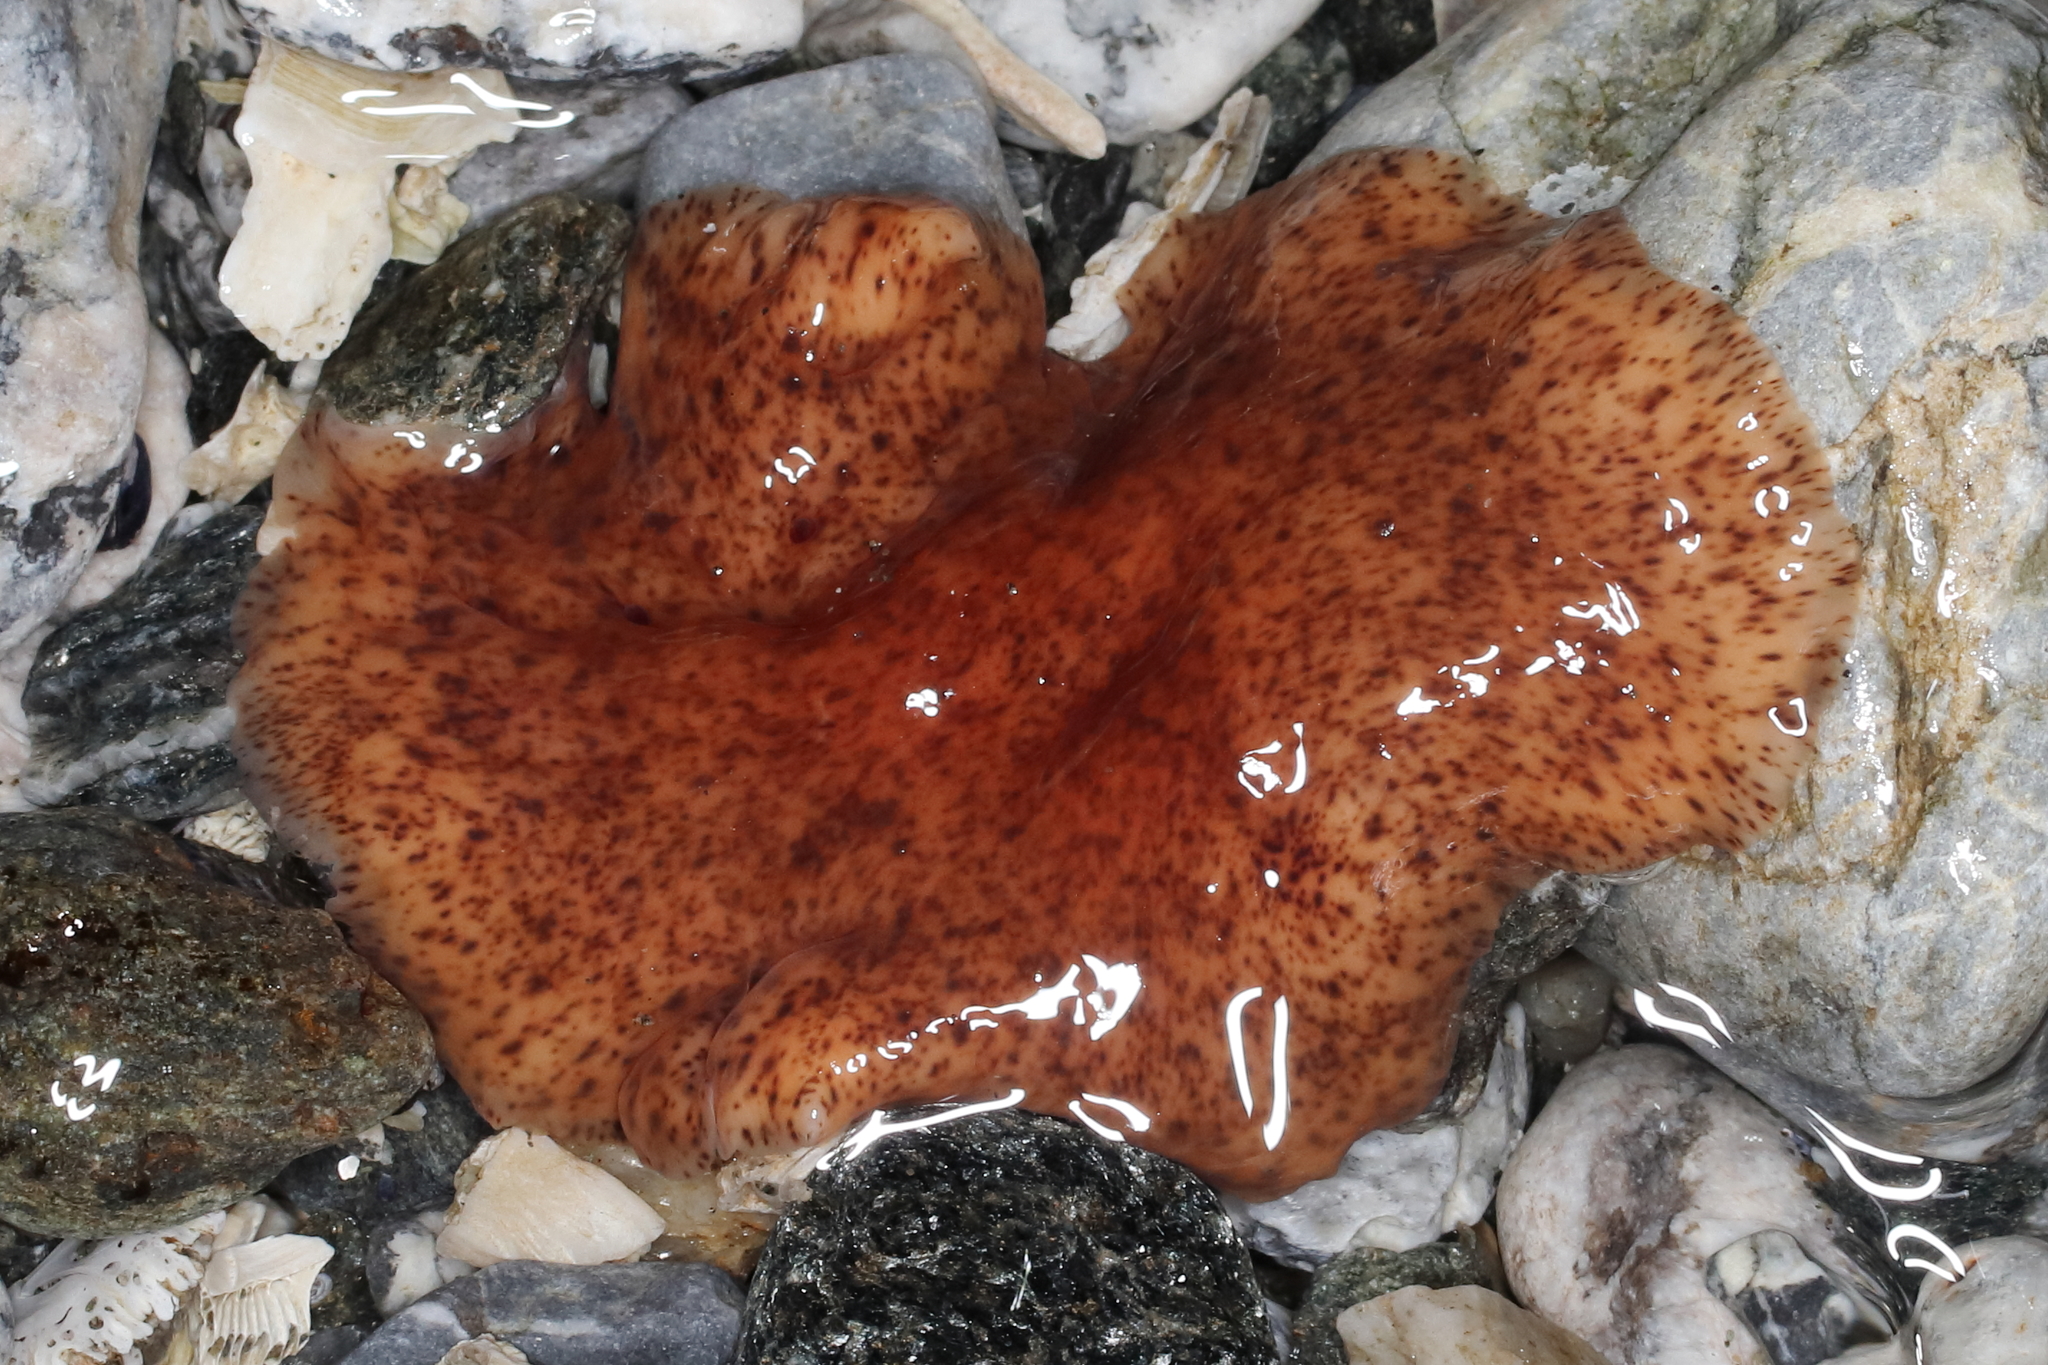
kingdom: Animalia
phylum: Platyhelminthes
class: Turbellaria
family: Callioplanidae
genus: Kaburakia
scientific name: Kaburakia excelsa
